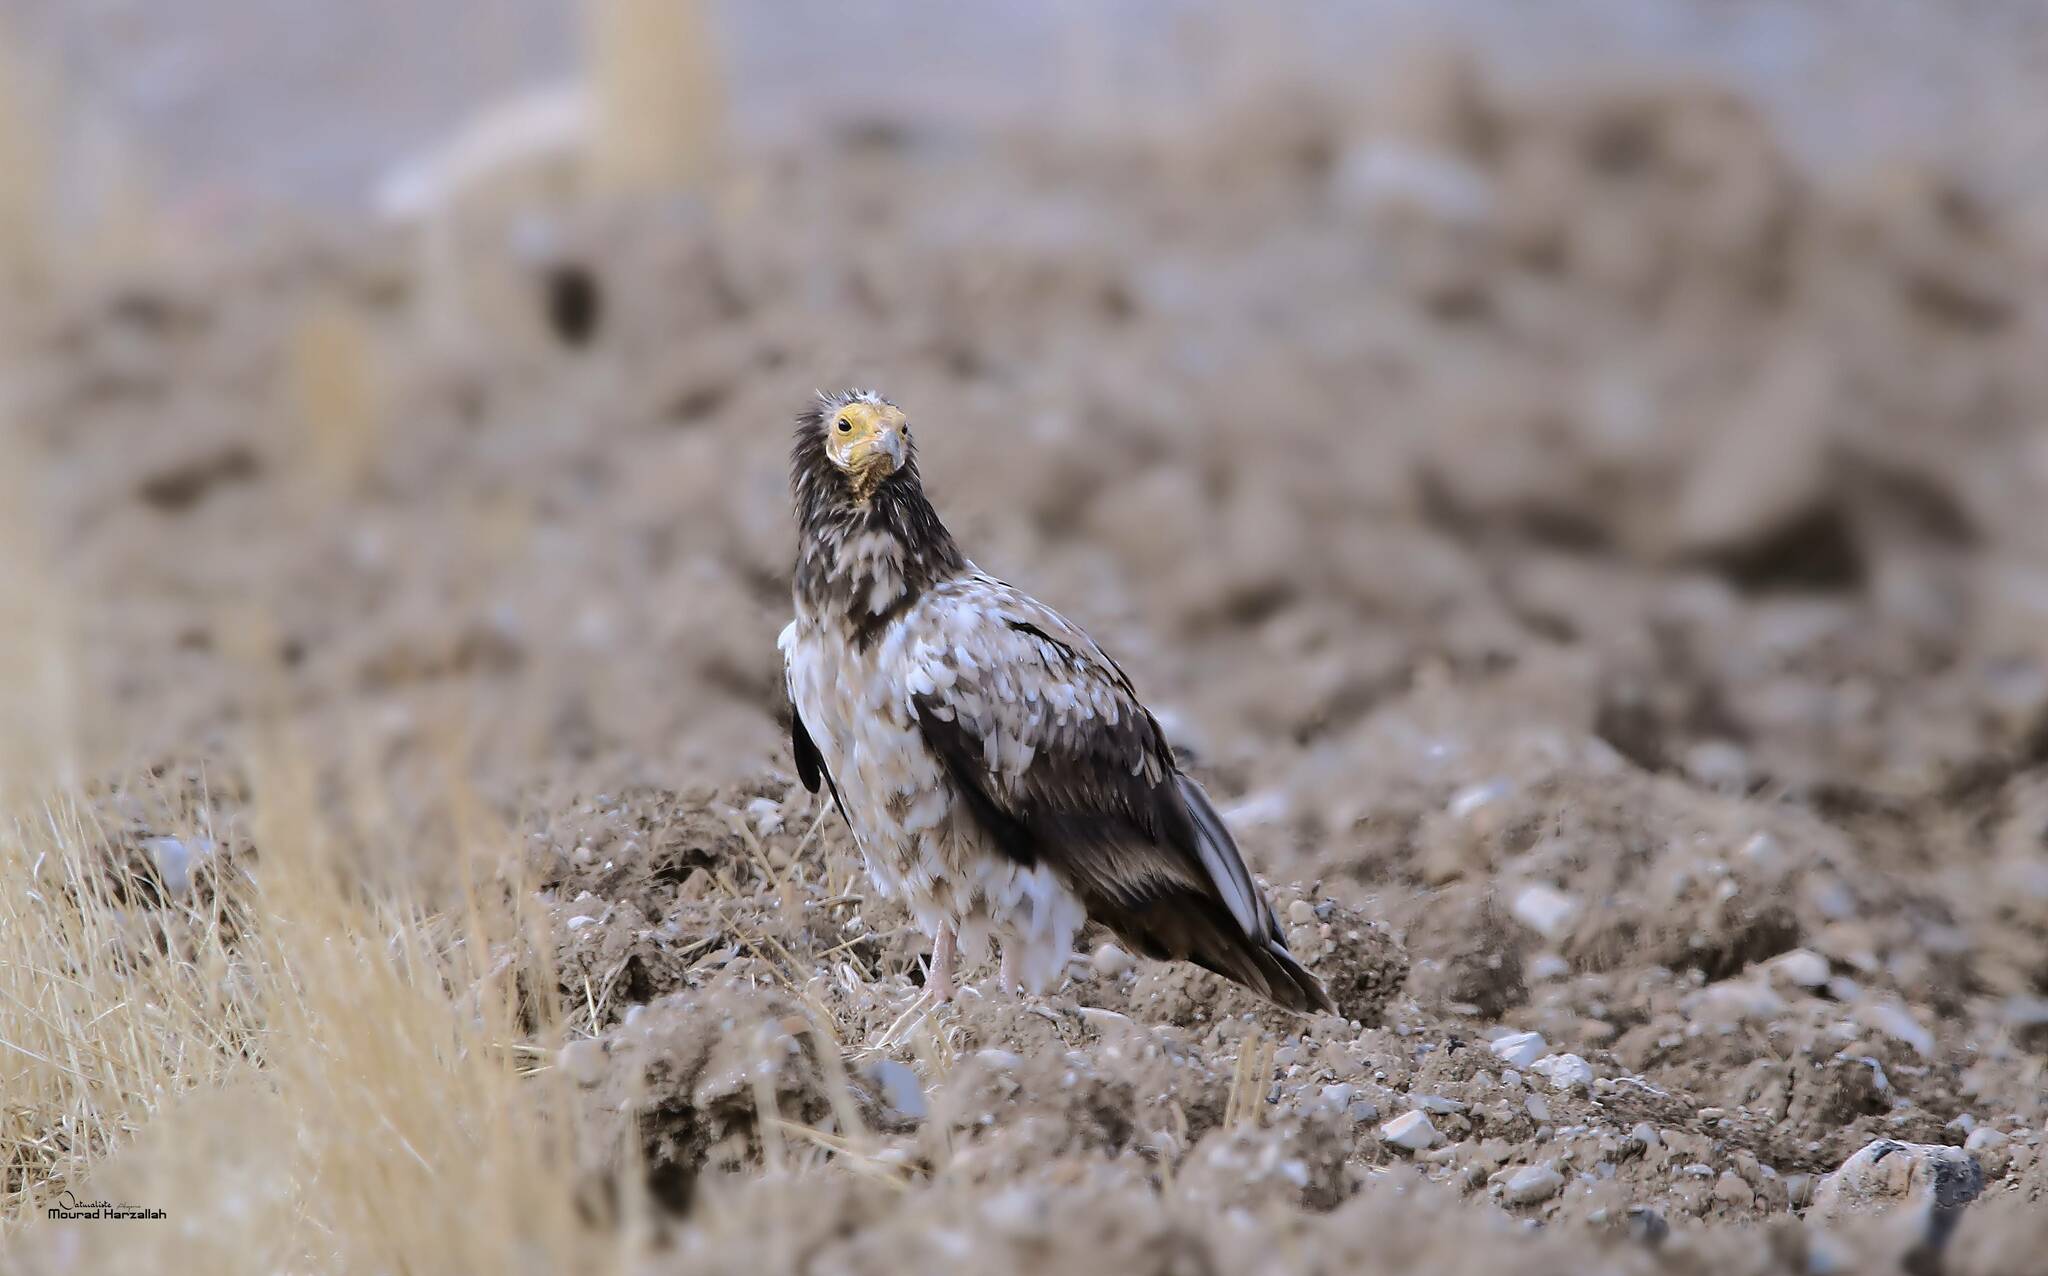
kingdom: Animalia
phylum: Chordata
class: Aves
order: Accipitriformes
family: Accipitridae
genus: Neophron
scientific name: Neophron percnopterus
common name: Egyptian vulture
